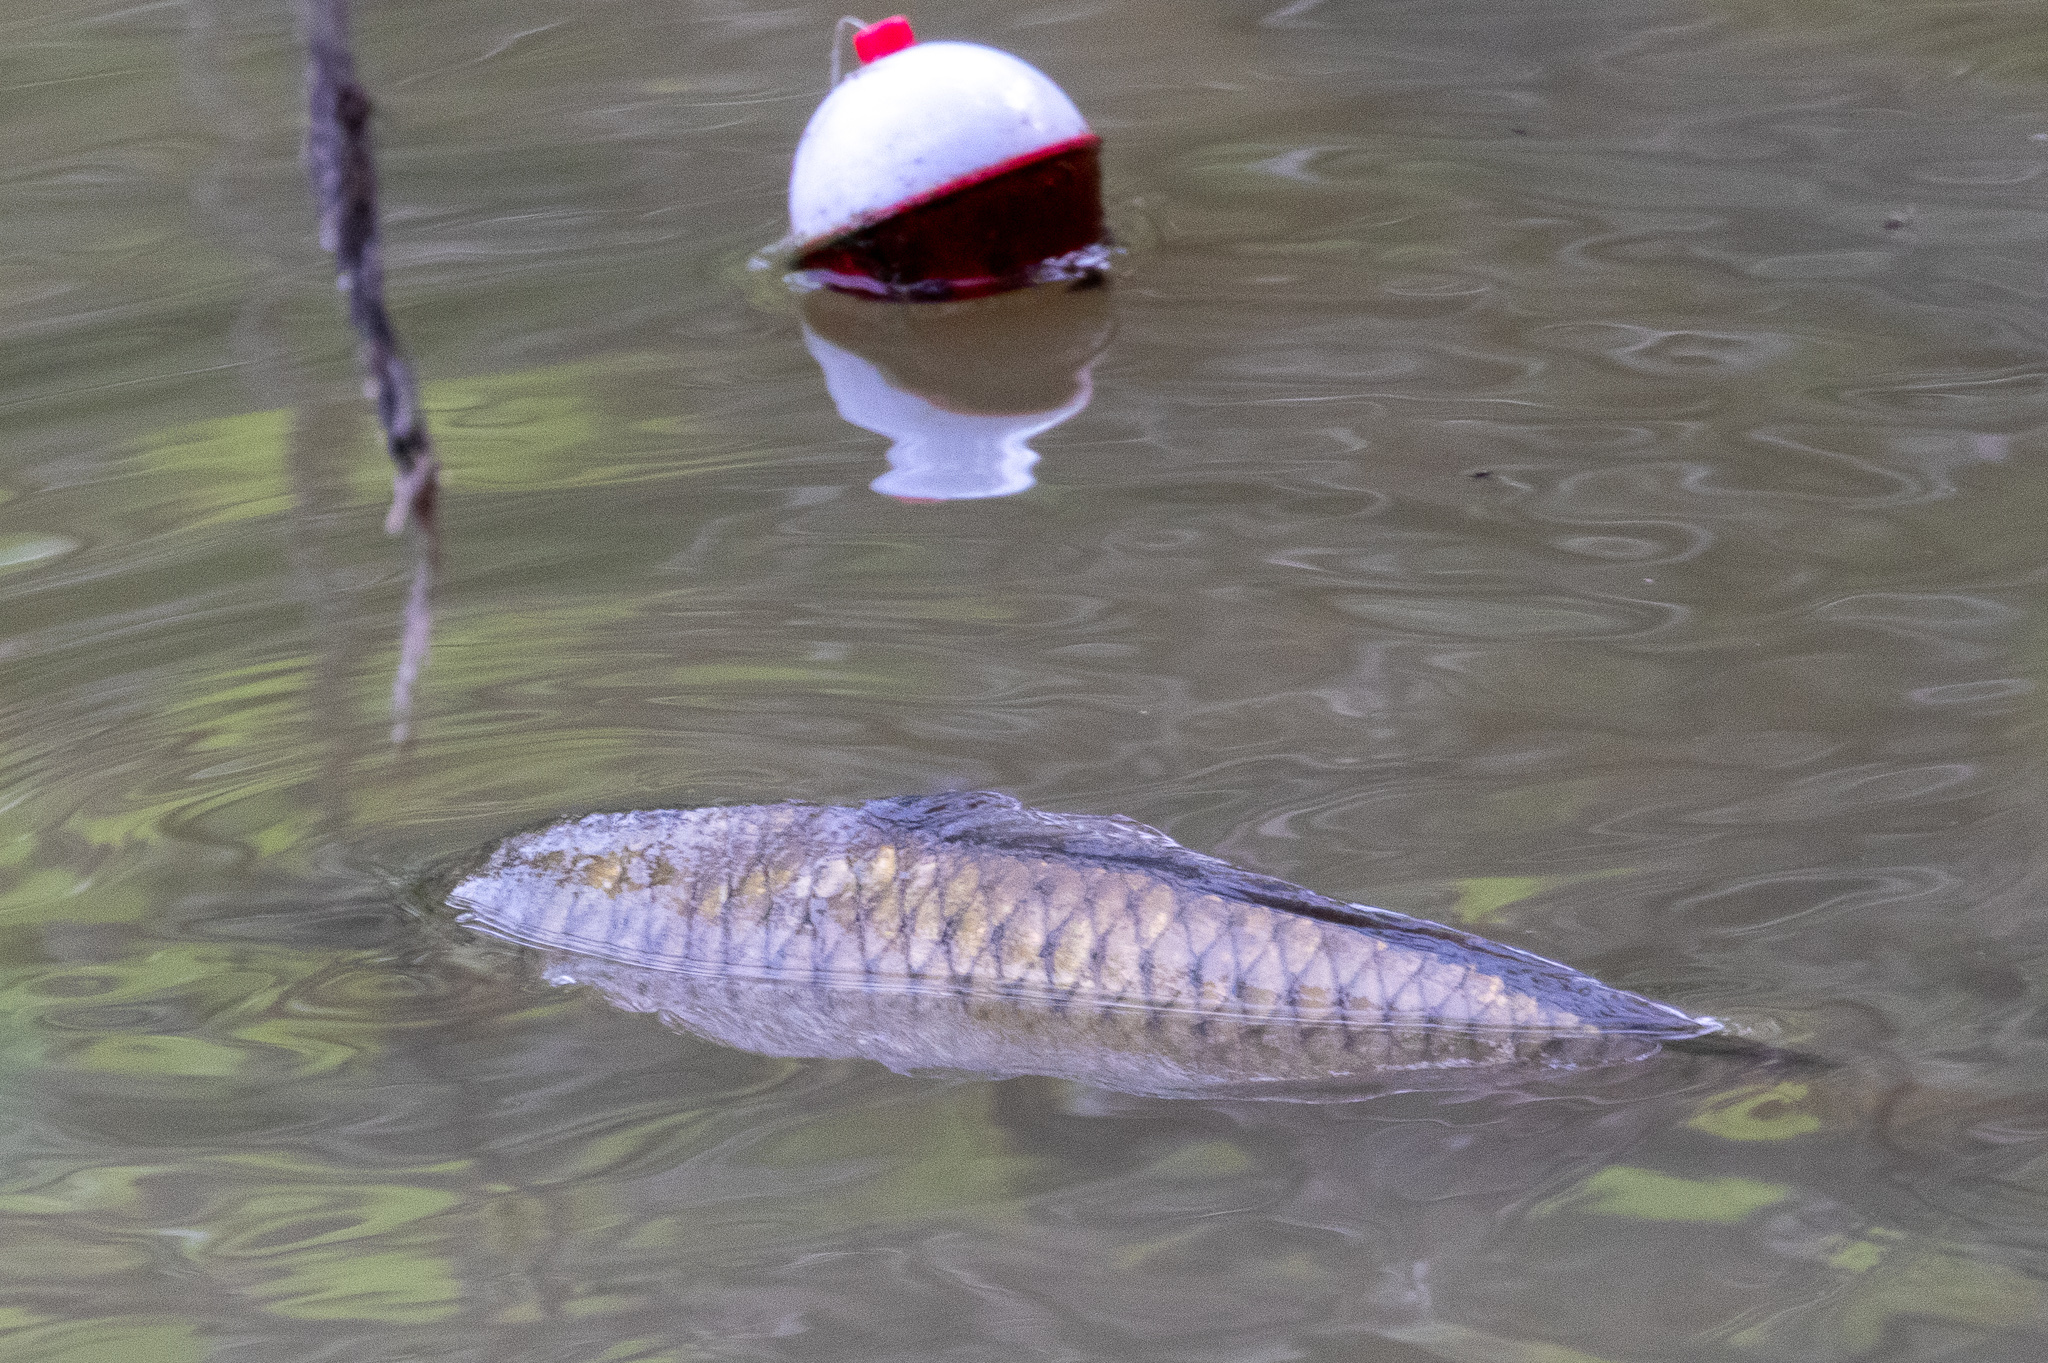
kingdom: Animalia
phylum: Chordata
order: Cypriniformes
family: Cyprinidae
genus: Cyprinus
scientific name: Cyprinus carpio
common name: Common carp
